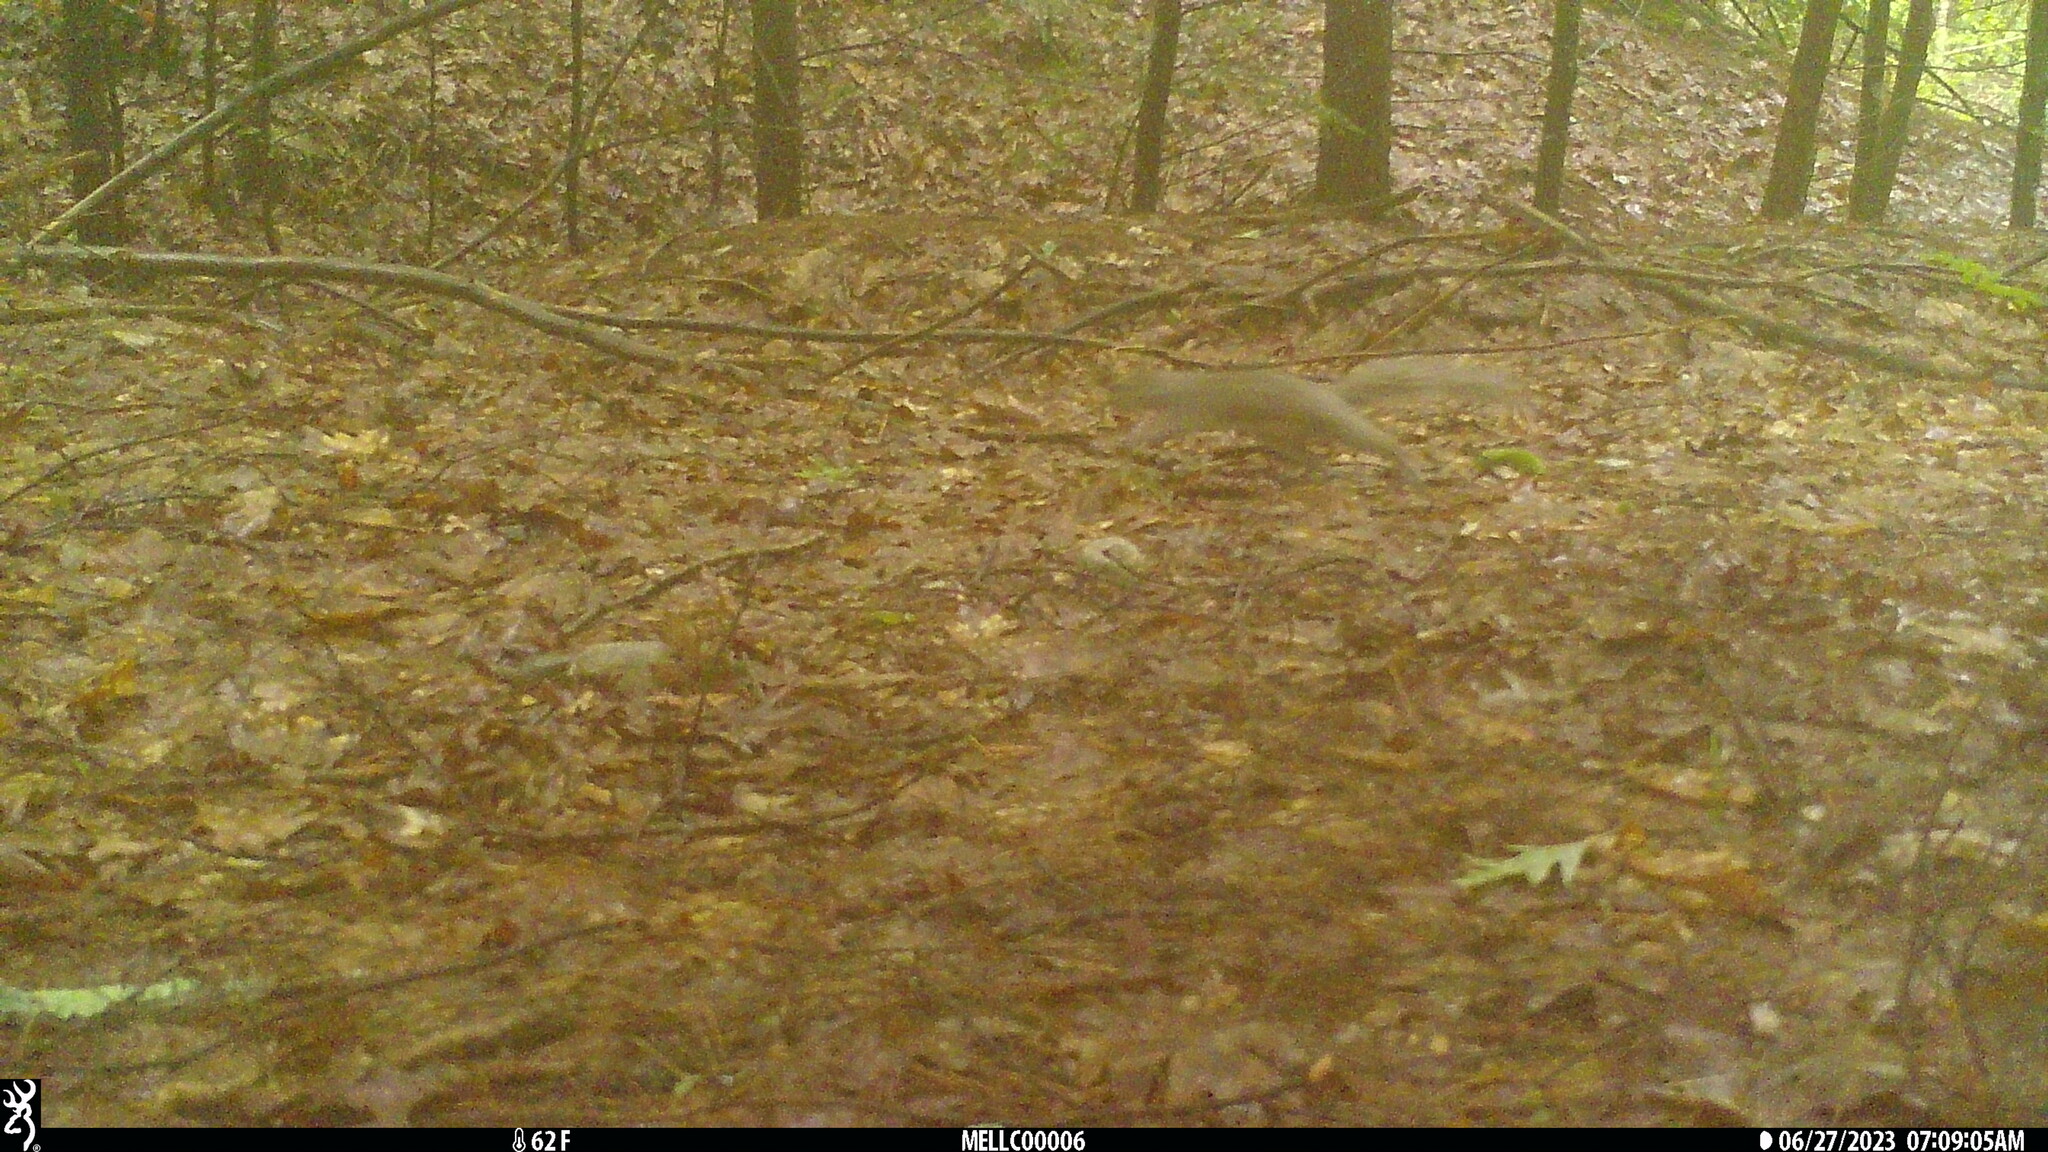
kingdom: Animalia
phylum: Chordata
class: Mammalia
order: Rodentia
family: Sciuridae
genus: Sciurus
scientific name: Sciurus carolinensis
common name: Eastern gray squirrel
